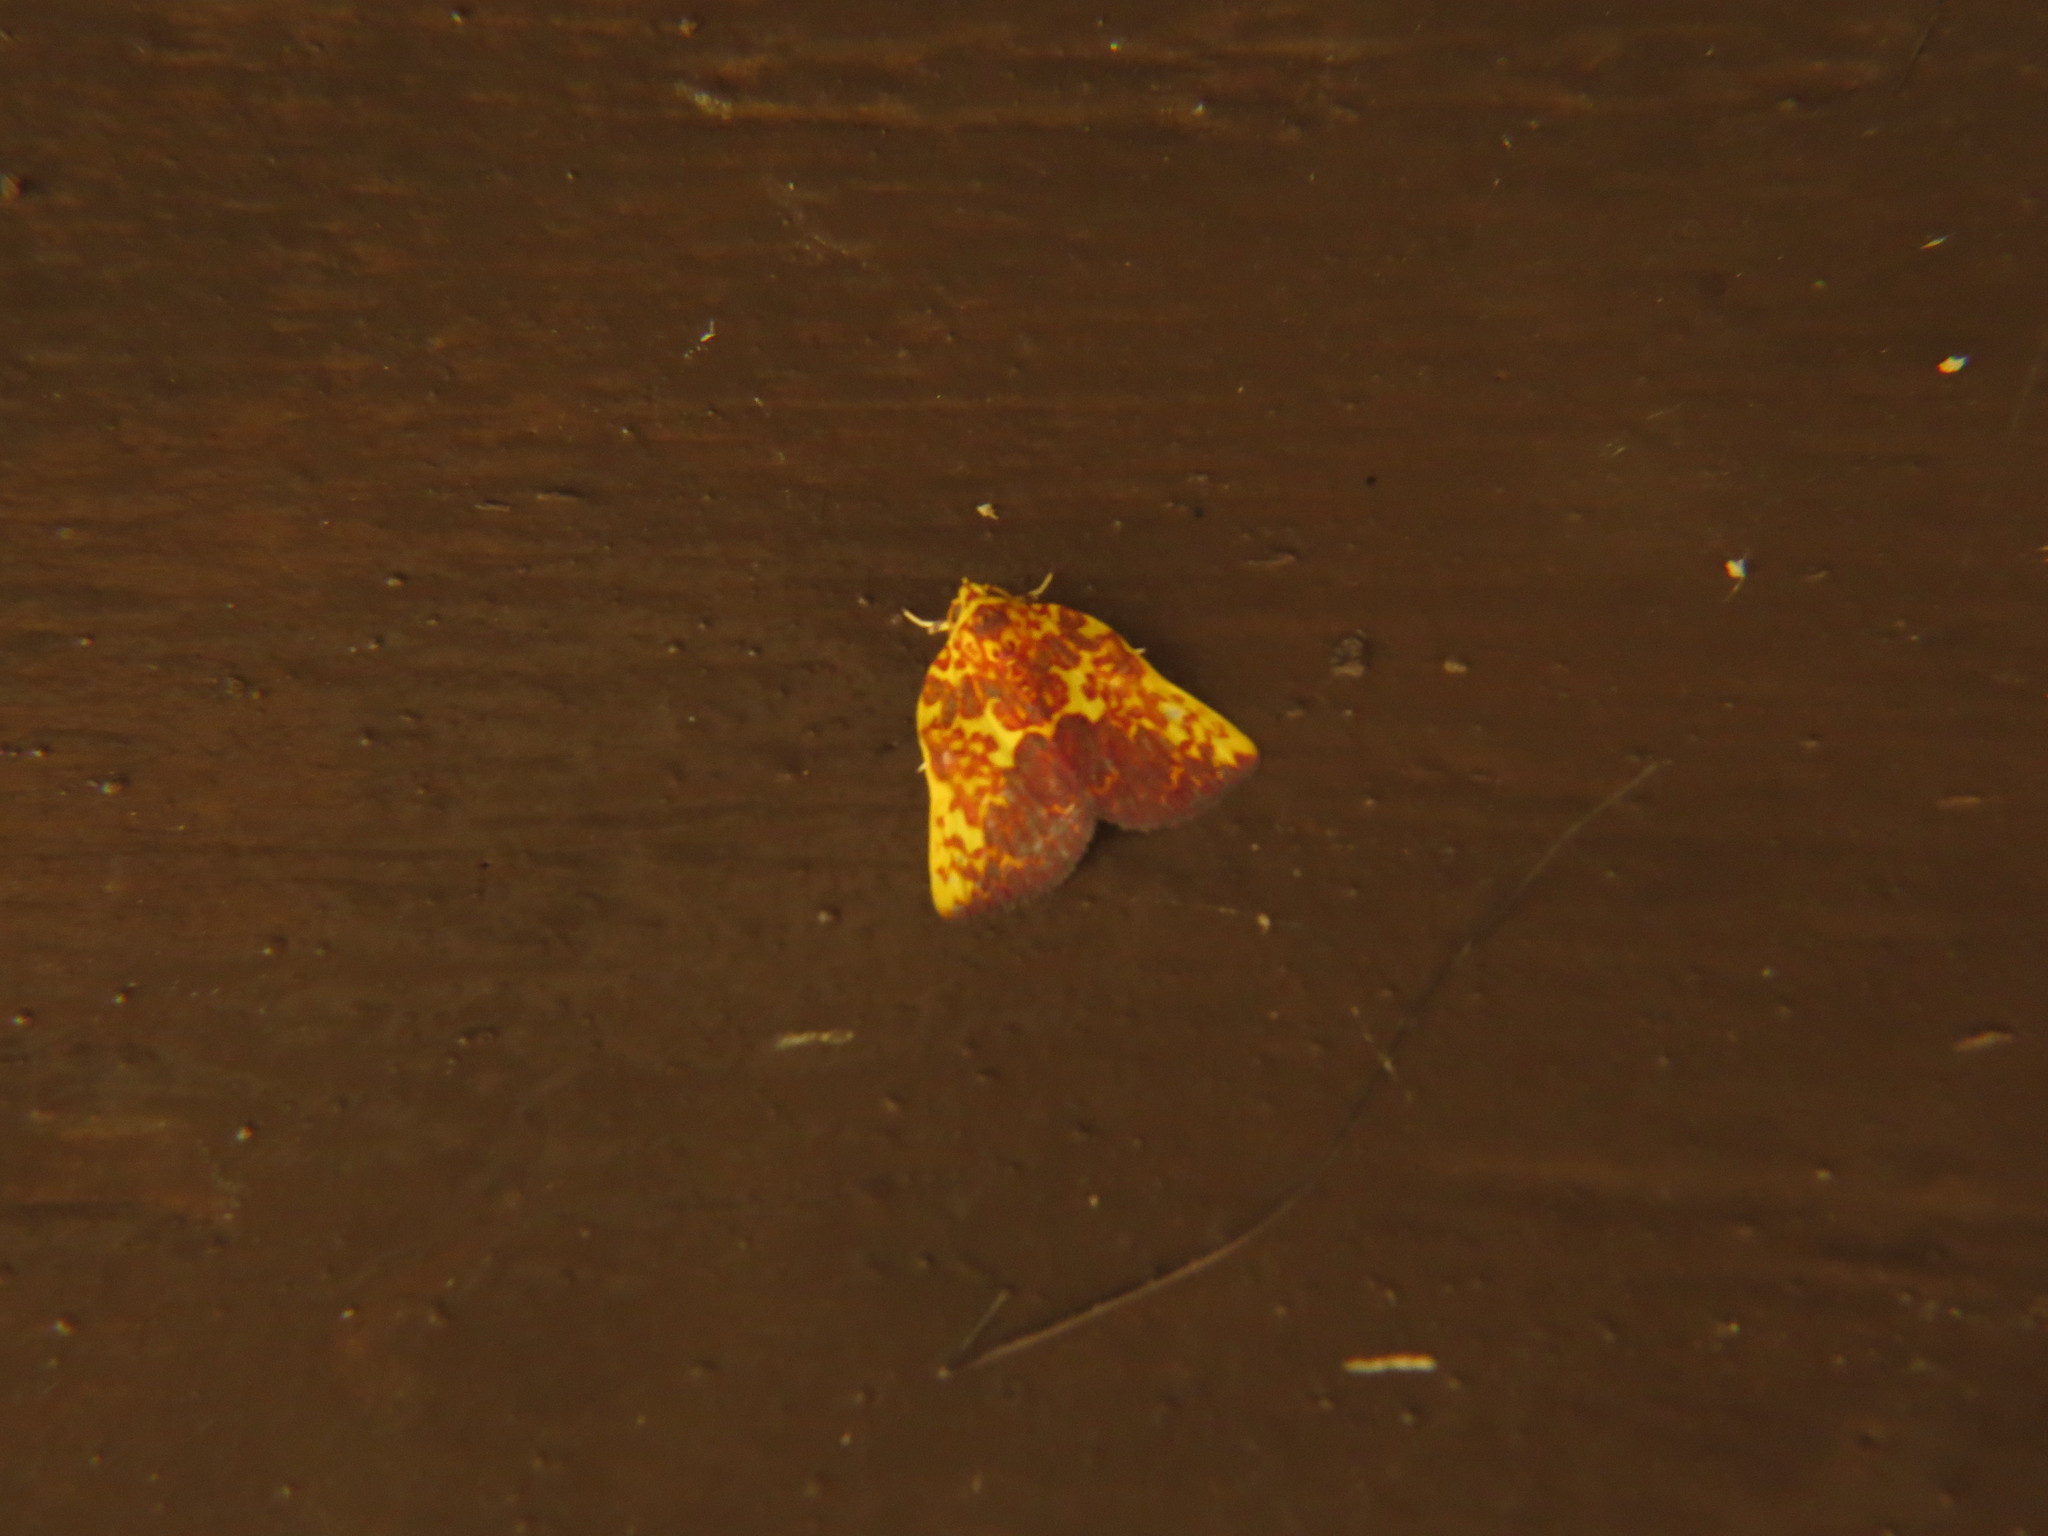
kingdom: Animalia
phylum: Arthropoda
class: Insecta
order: Lepidoptera
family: Nolidae
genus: Siglophora
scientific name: Siglophora ferreilutea
